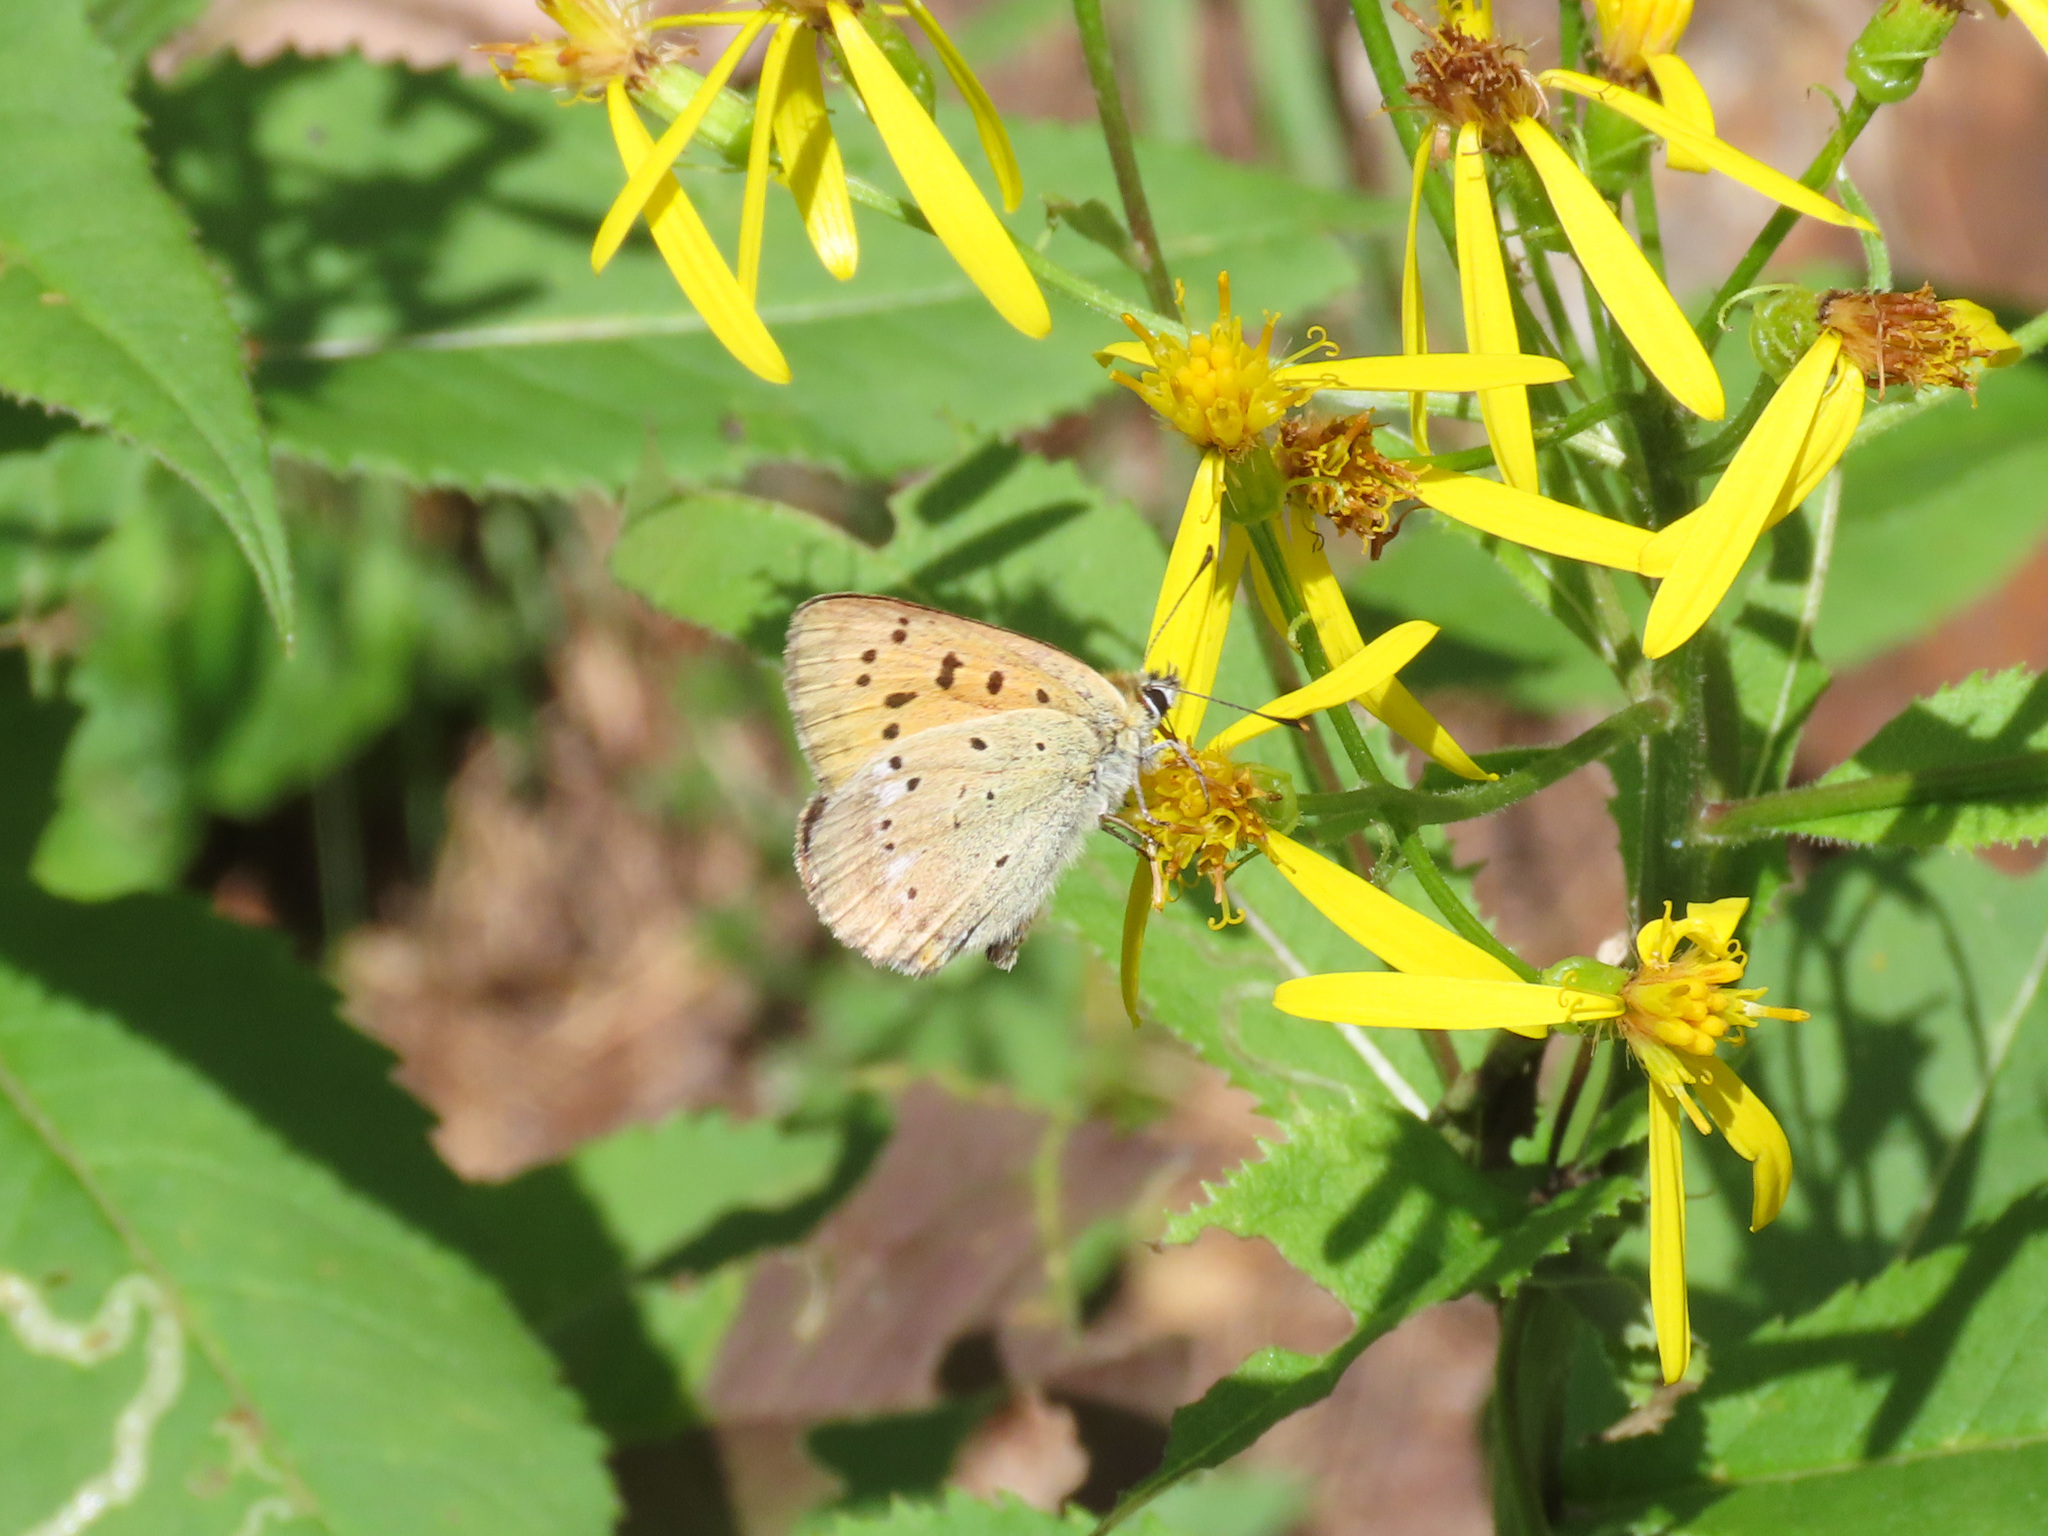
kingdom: Animalia
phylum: Arthropoda
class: Insecta
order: Lepidoptera
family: Lycaenidae
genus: Lycaena
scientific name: Lycaena virgaureae
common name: Scarce copper
